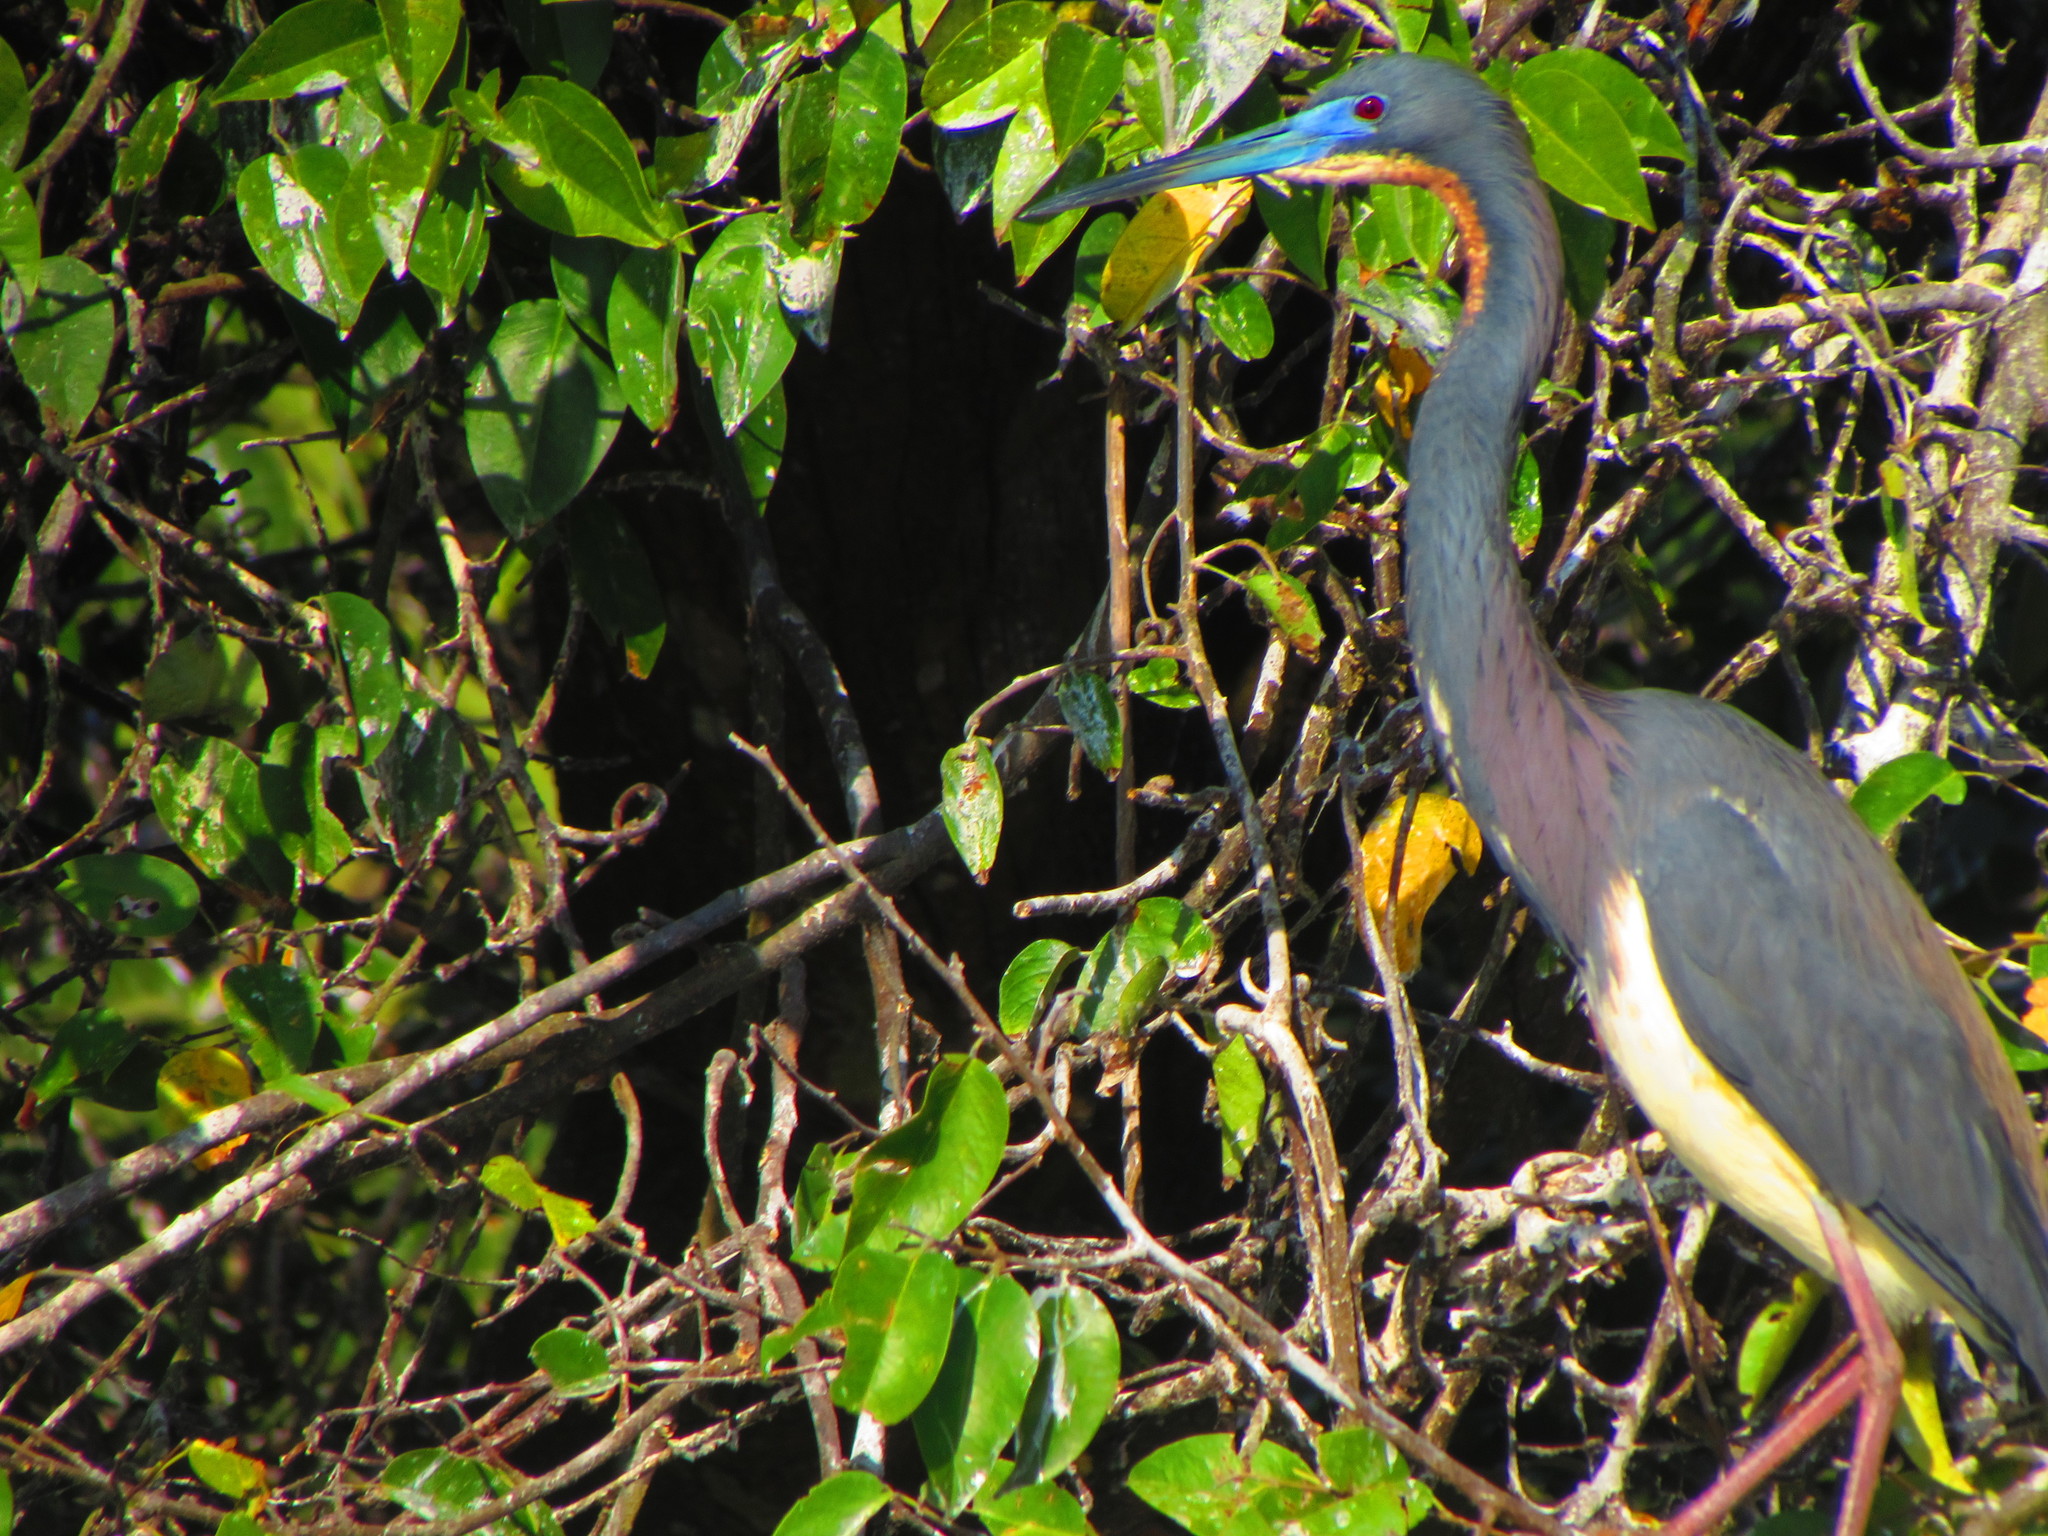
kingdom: Animalia
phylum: Chordata
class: Aves
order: Pelecaniformes
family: Ardeidae
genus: Egretta
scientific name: Egretta tricolor
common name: Tricolored heron
